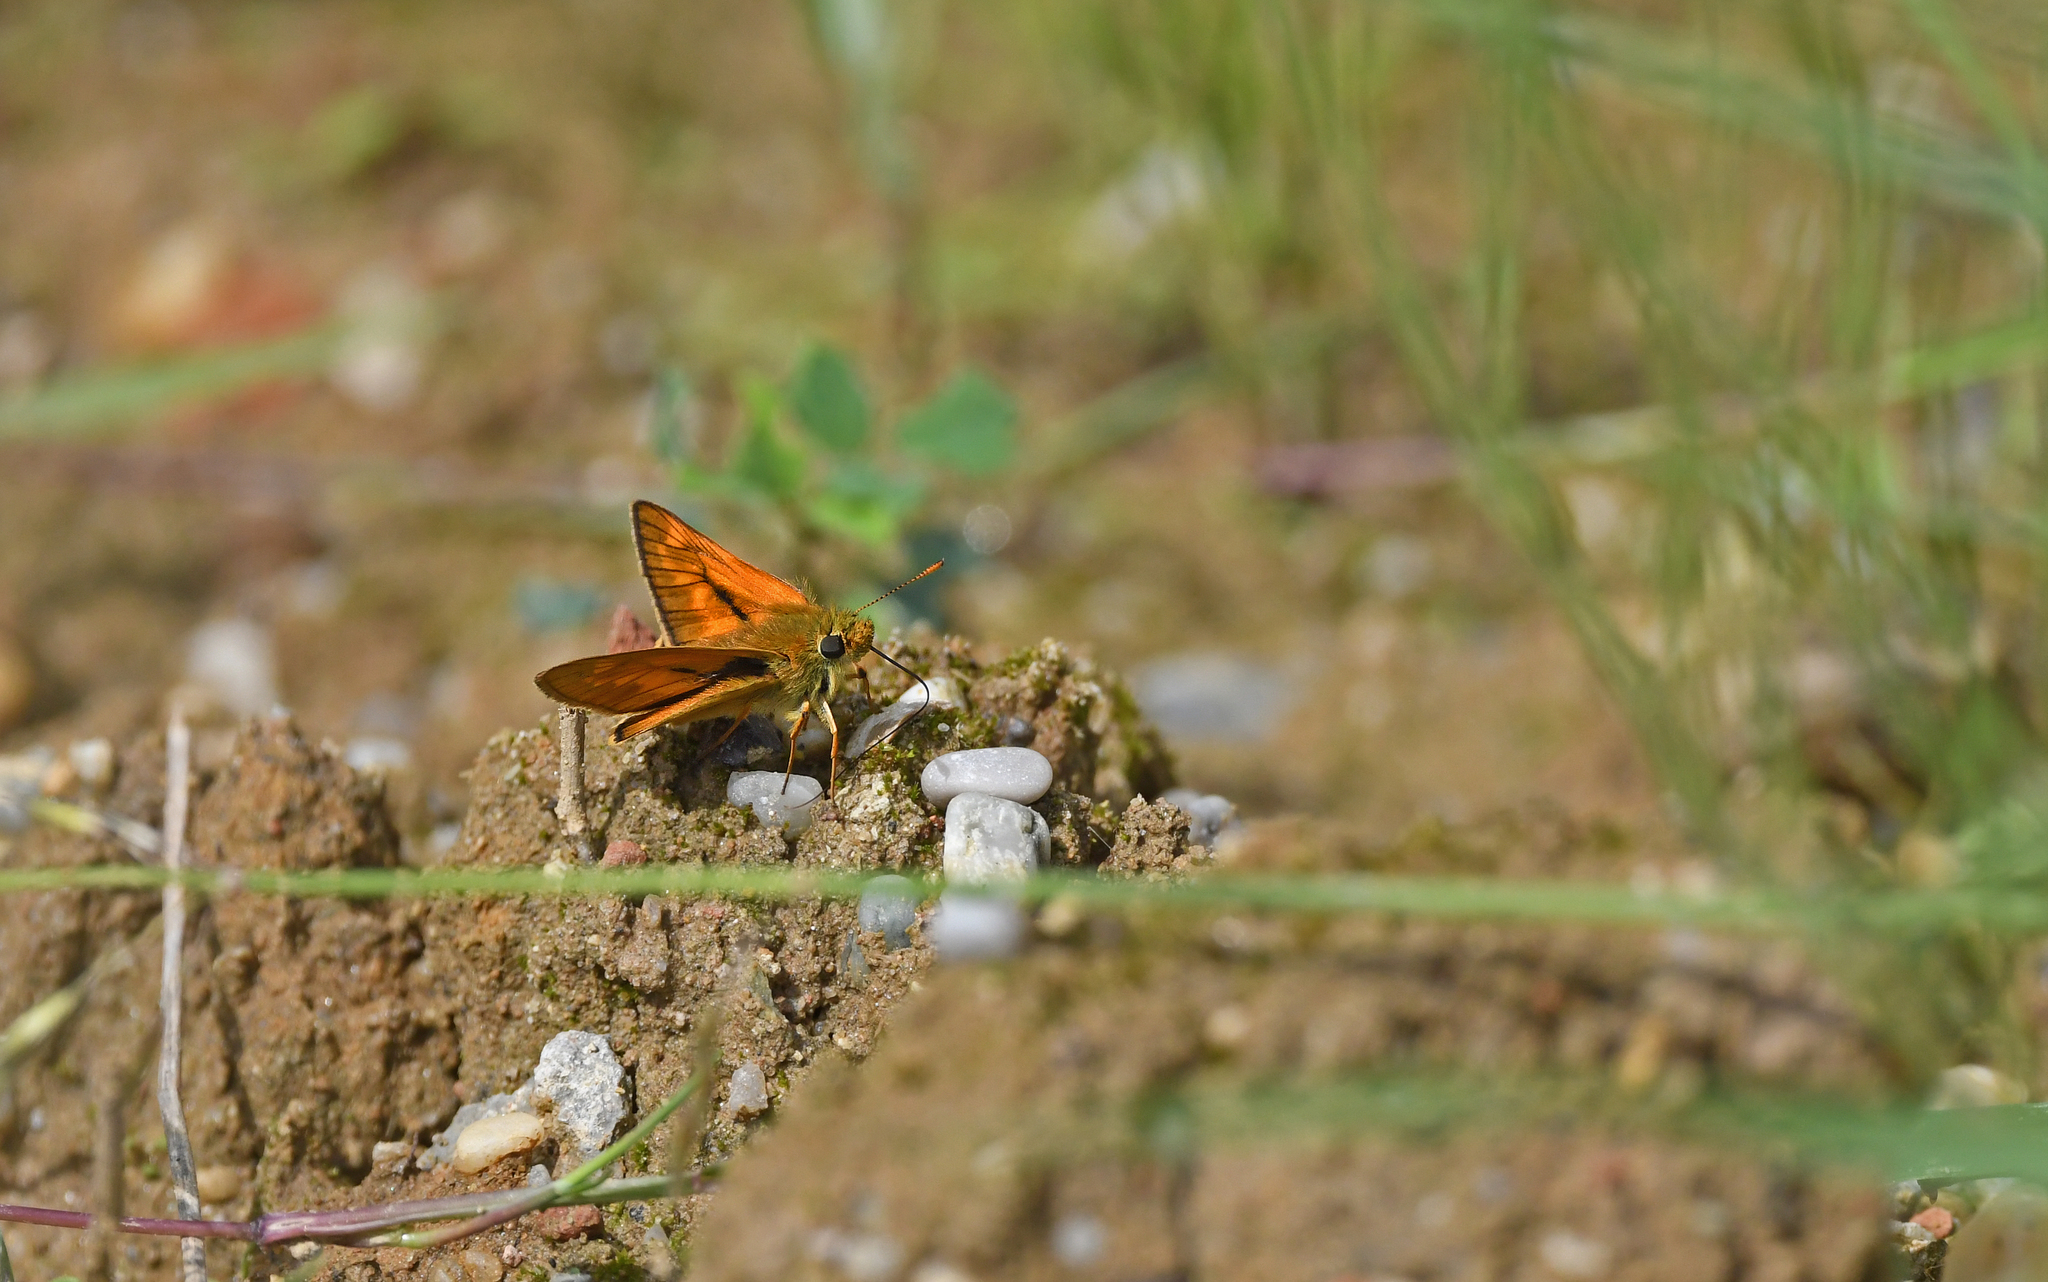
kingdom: Animalia
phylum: Arthropoda
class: Insecta
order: Lepidoptera
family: Hesperiidae
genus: Ochlodes
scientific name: Ochlodes venata
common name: Large skipper
